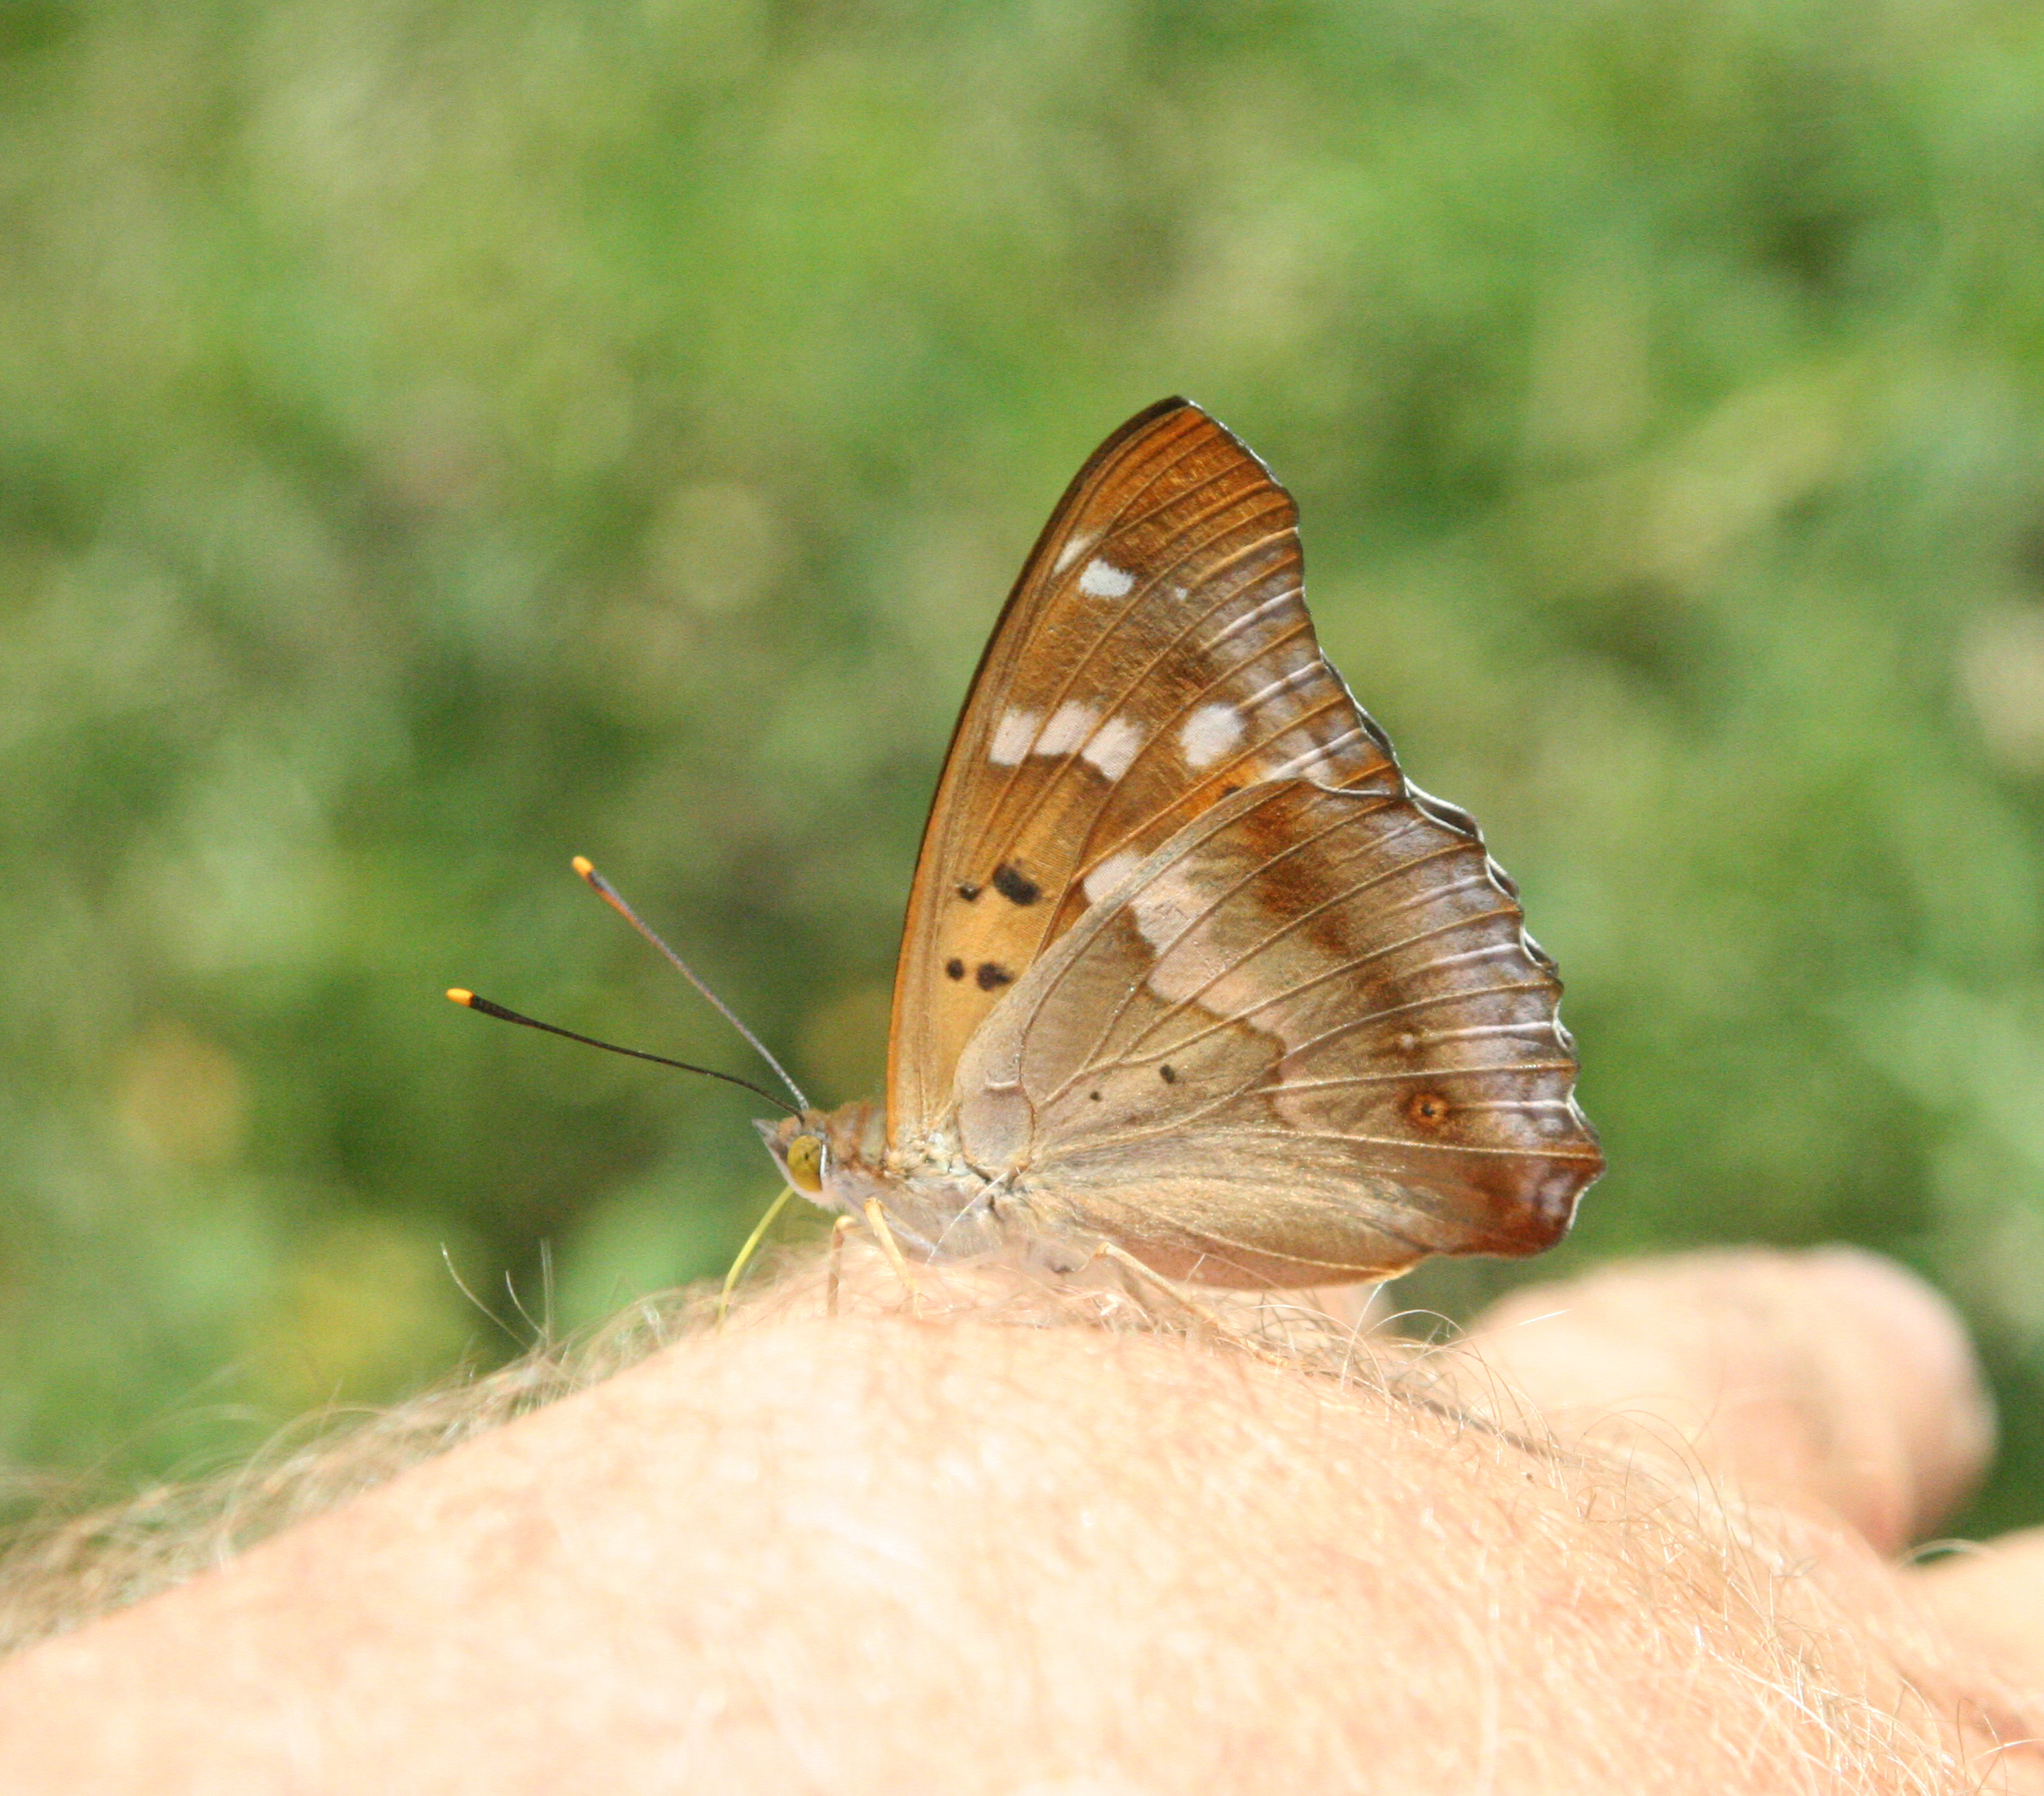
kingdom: Animalia
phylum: Arthropoda
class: Insecta
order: Lepidoptera
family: Nymphalidae
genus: Apatura
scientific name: Apatura ilia
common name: Lesser purple emperor
